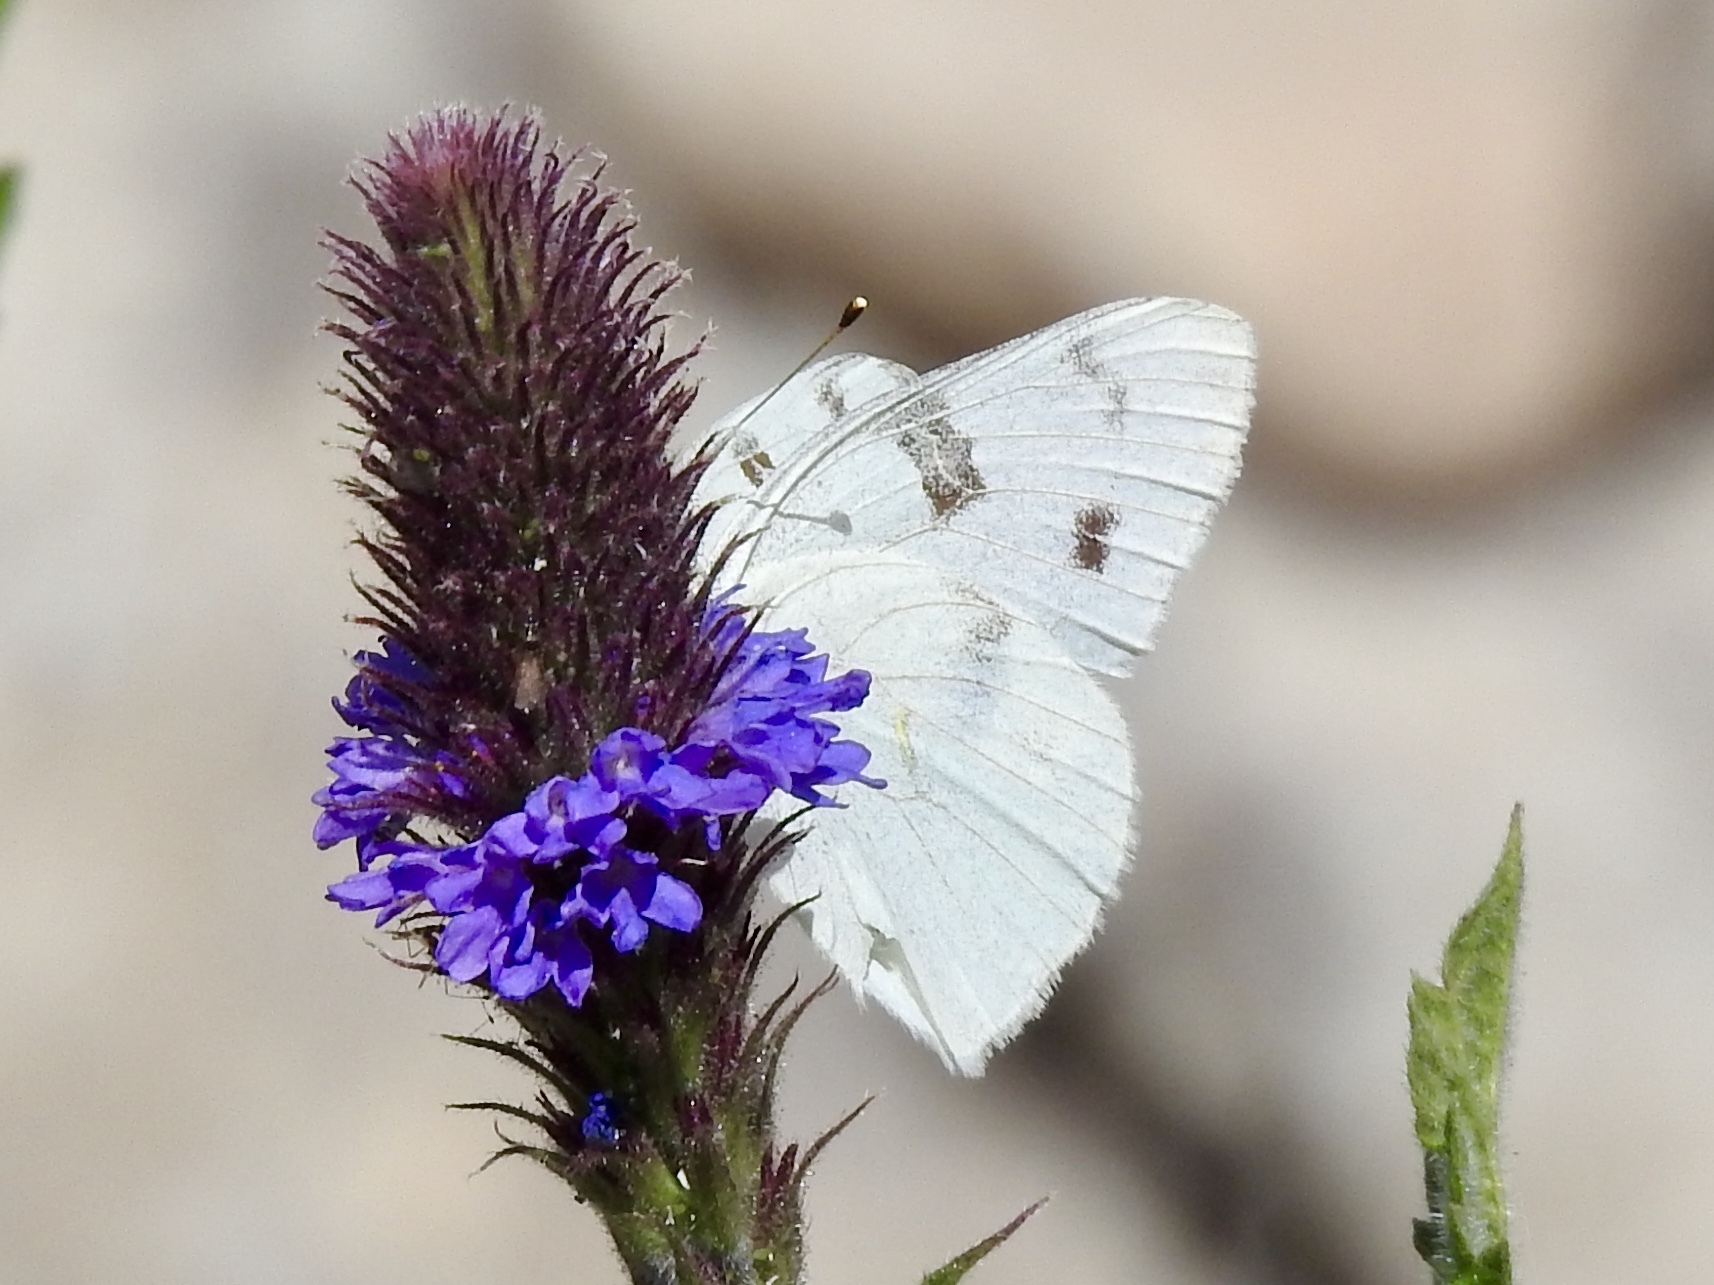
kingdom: Animalia
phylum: Arthropoda
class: Insecta
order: Lepidoptera
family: Pieridae
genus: Pontia
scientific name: Pontia protodice
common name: Checkered white
